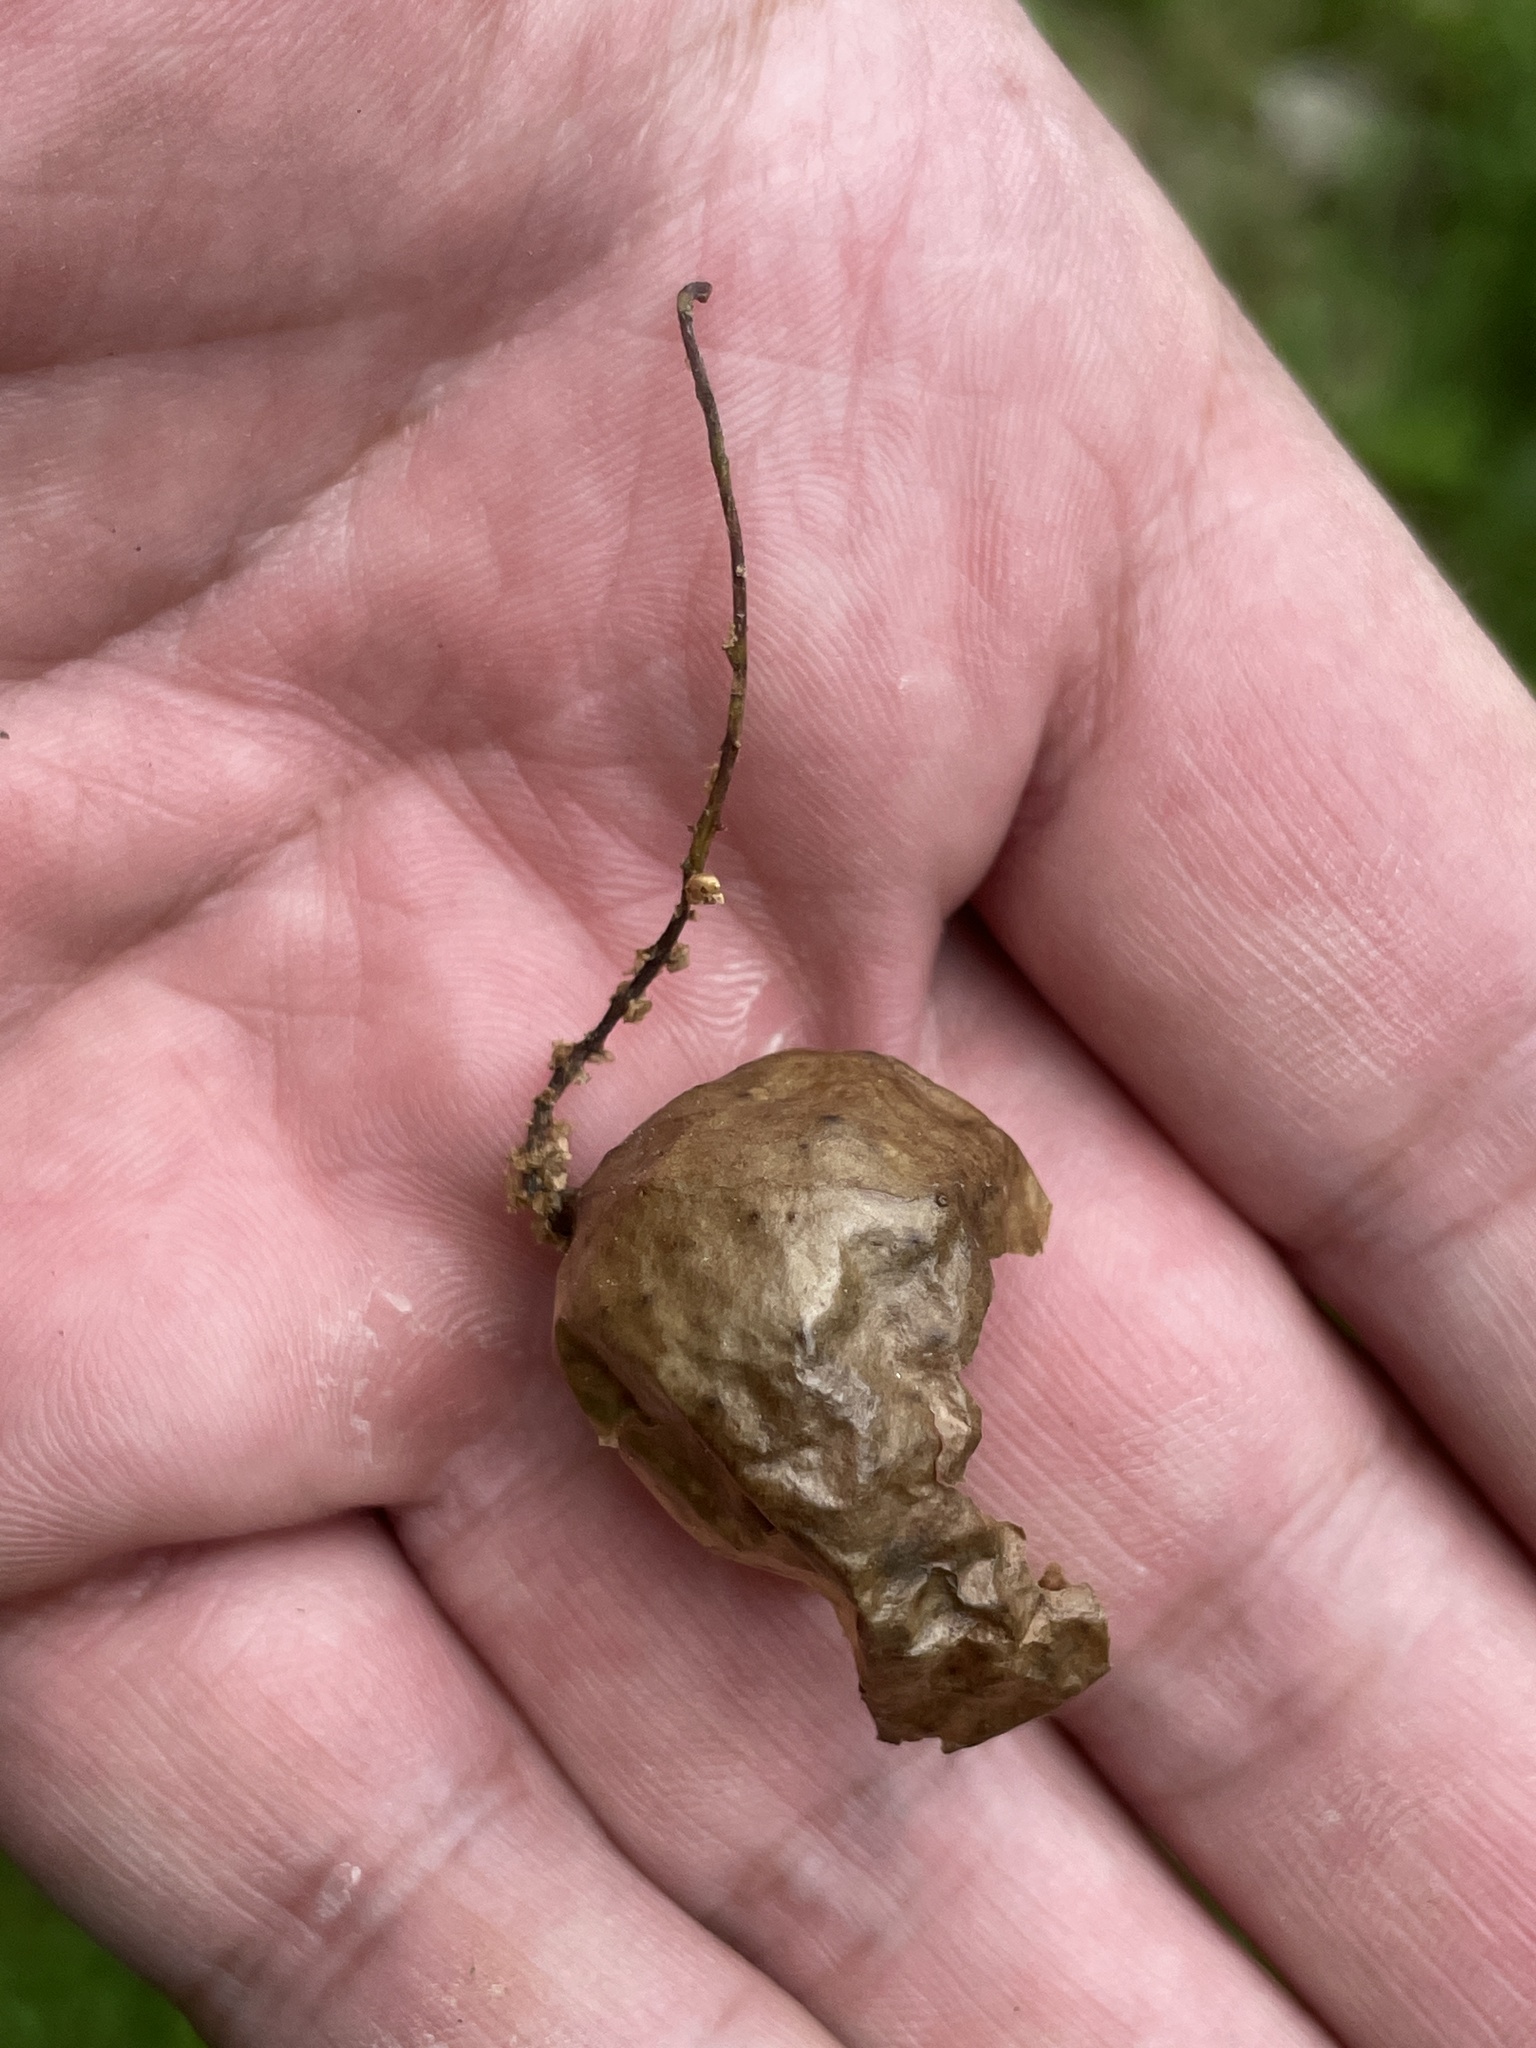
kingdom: Animalia
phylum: Arthropoda
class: Insecta
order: Hymenoptera
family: Cynipidae
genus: Amphibolips
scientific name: Amphibolips
